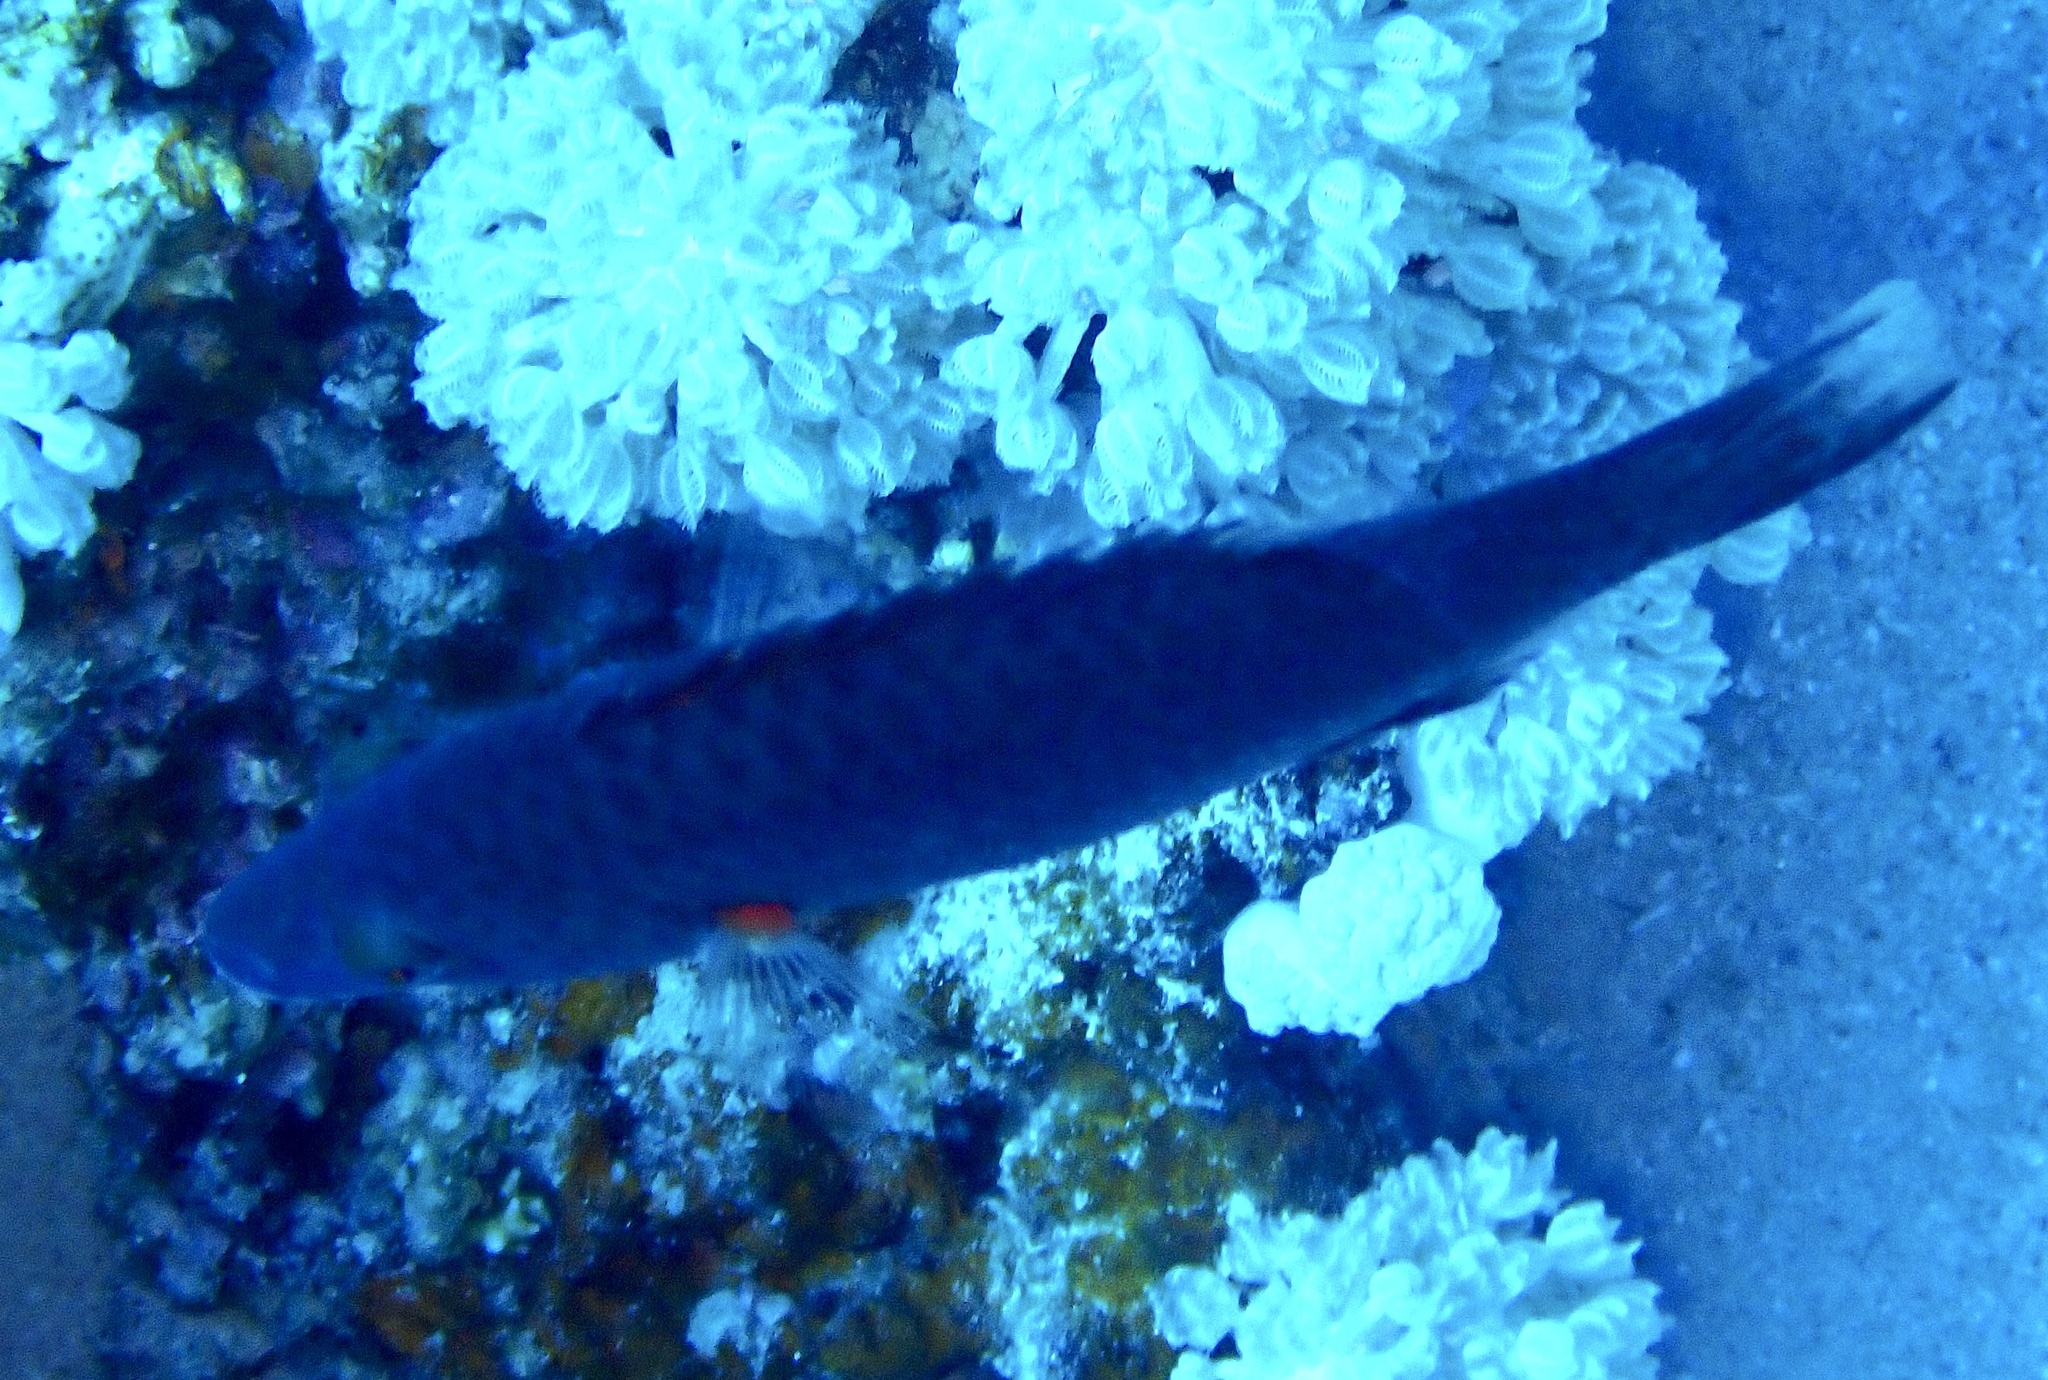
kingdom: Animalia
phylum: Chordata
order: Perciformes
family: Labridae
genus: Oxycheilinus
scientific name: Oxycheilinus digramma
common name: Bandcheek wrasse
